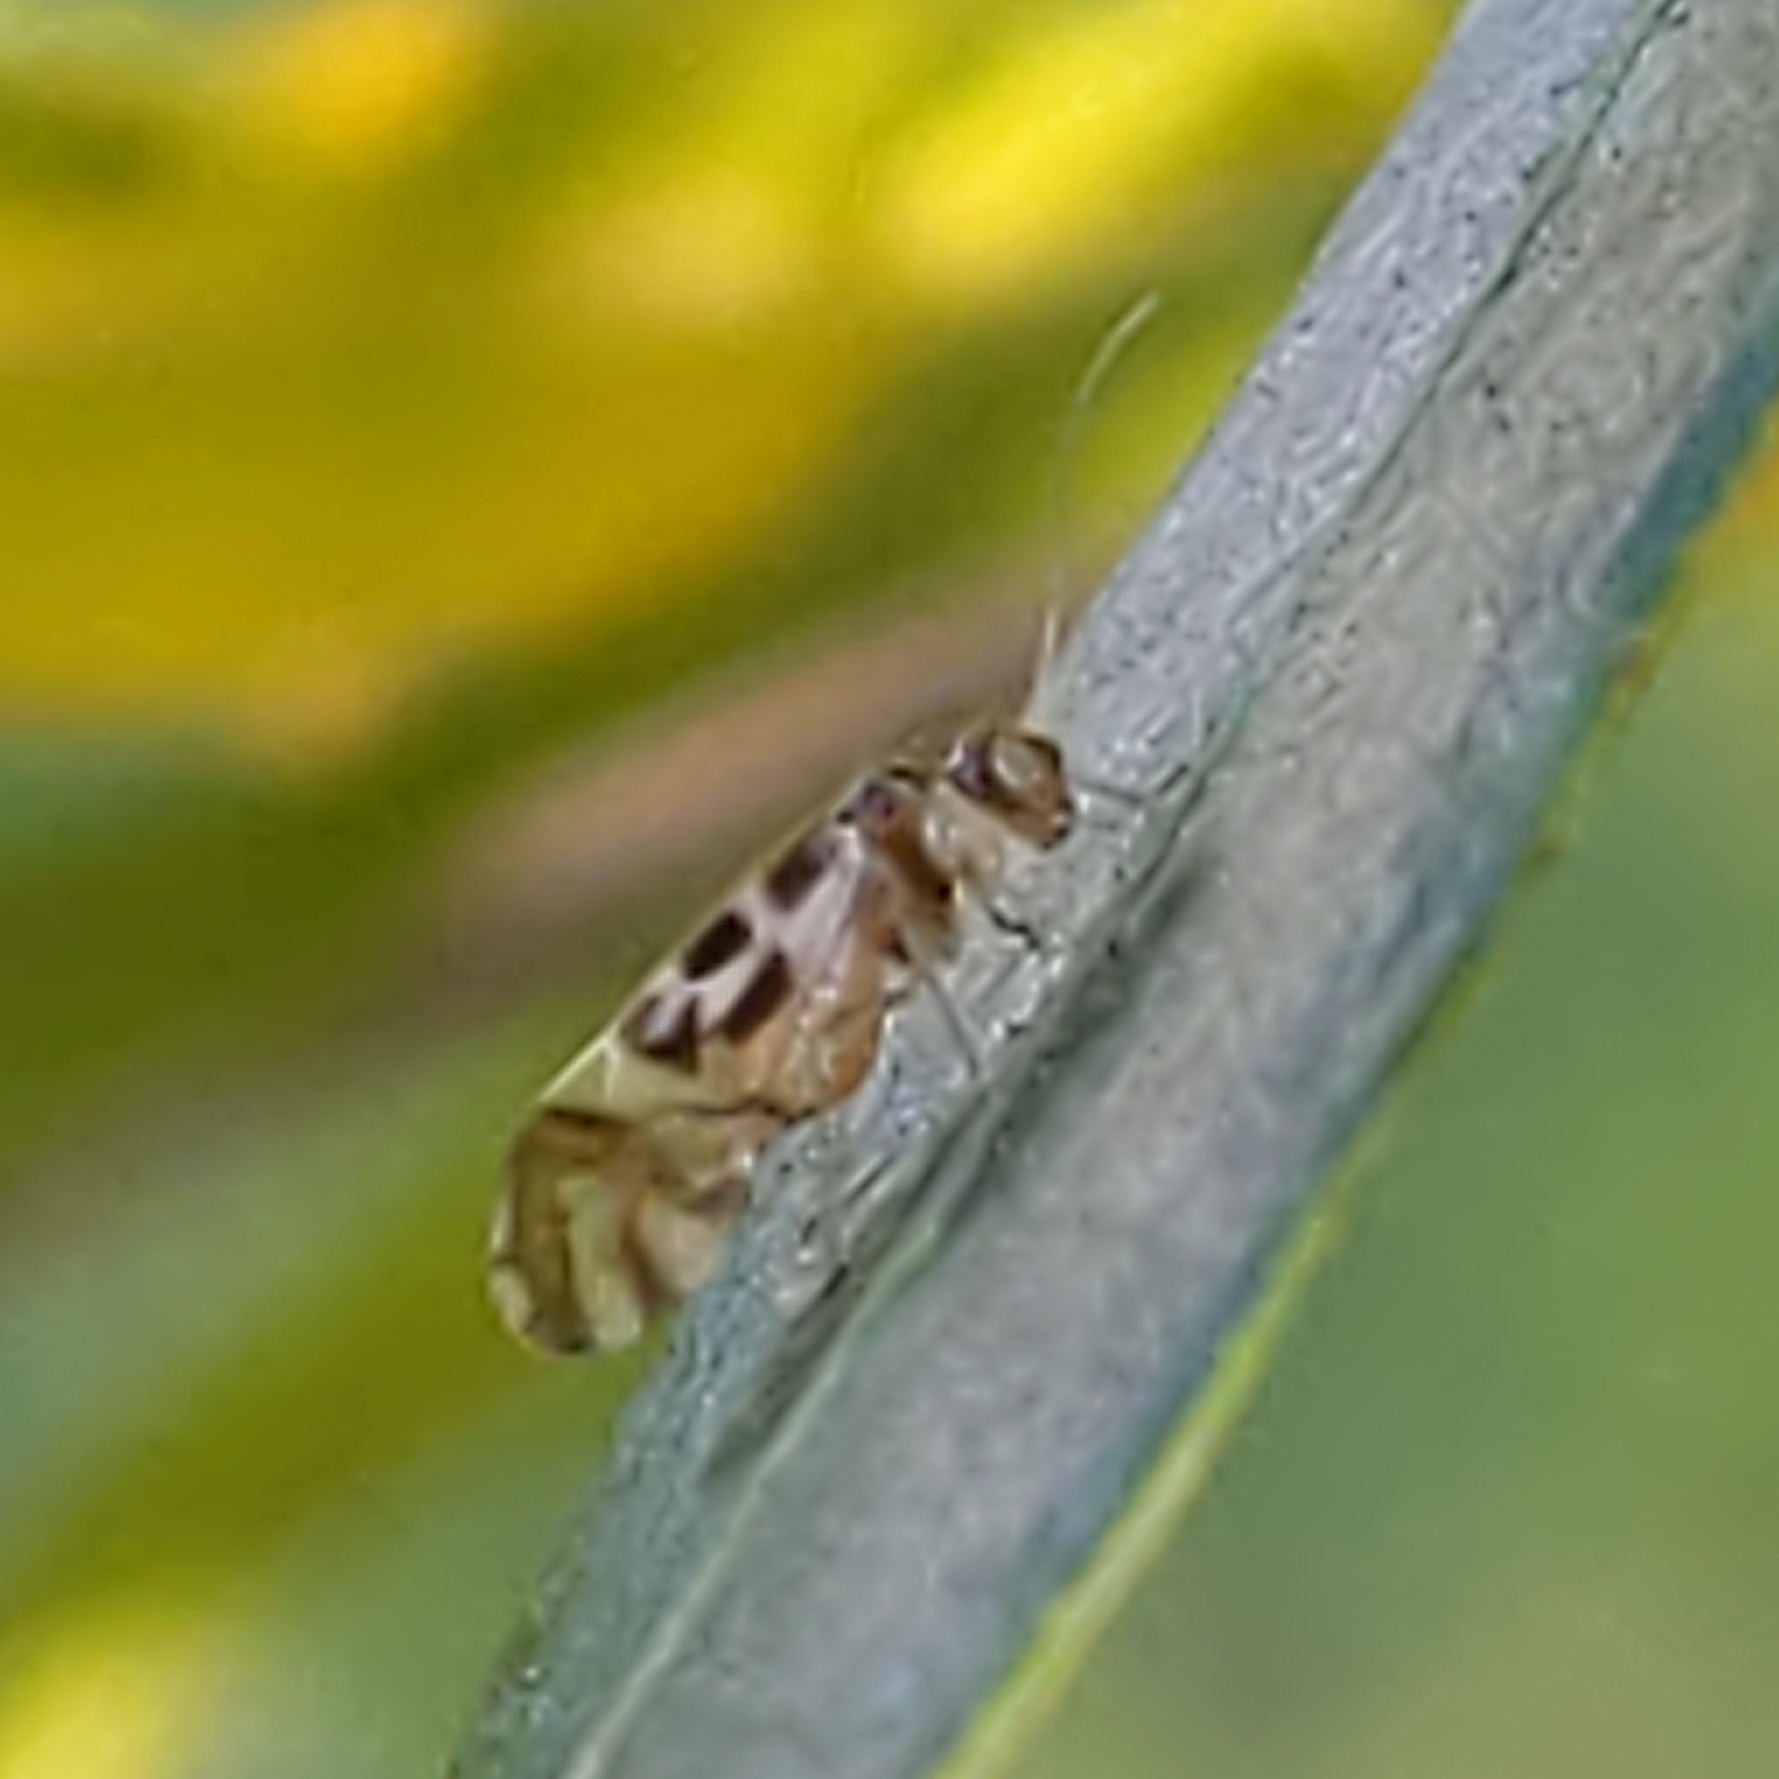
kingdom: Animalia
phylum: Arthropoda
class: Insecta
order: Psocodea
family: Stenopsocidae
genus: Graphopsocus
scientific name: Graphopsocus cruciatus
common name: Lizard bark louse
